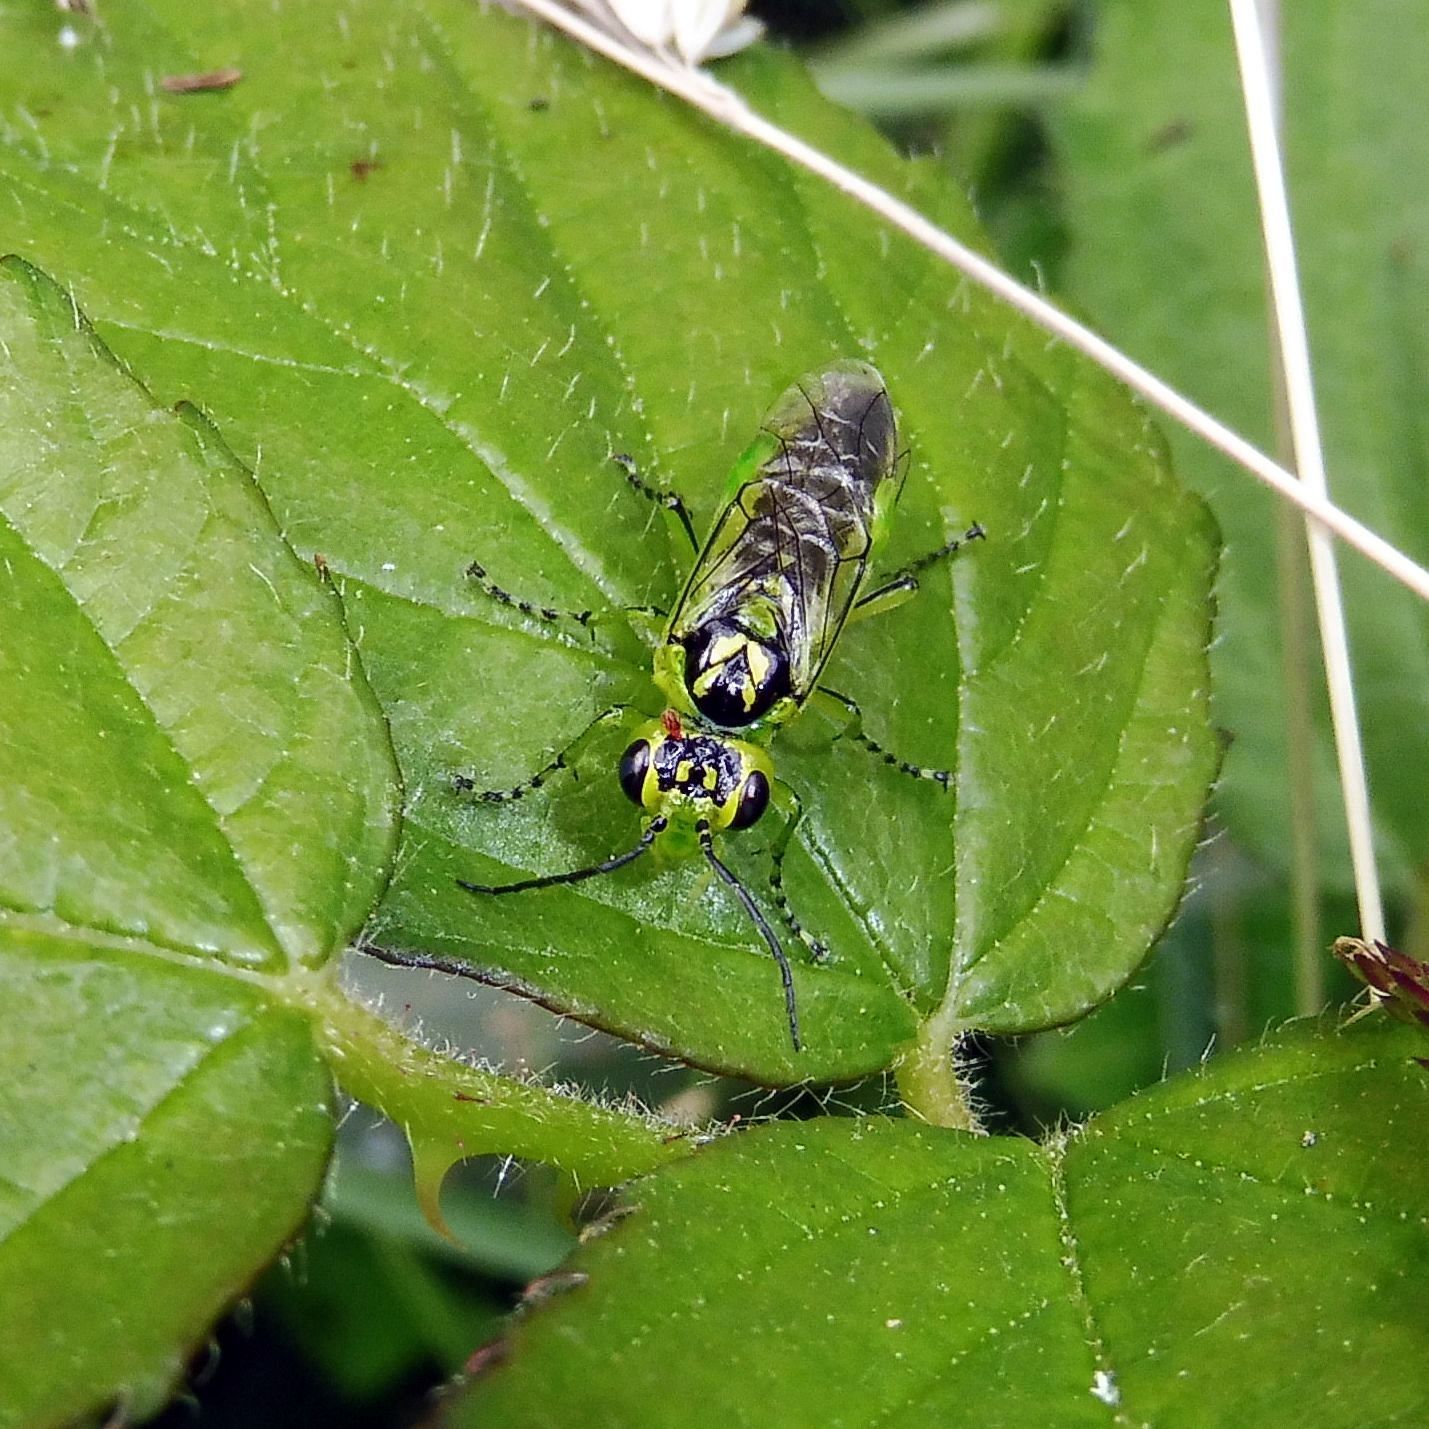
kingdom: Animalia
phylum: Arthropoda
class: Insecta
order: Hymenoptera
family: Tenthredinidae
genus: Rhogogaster
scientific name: Rhogogaster
